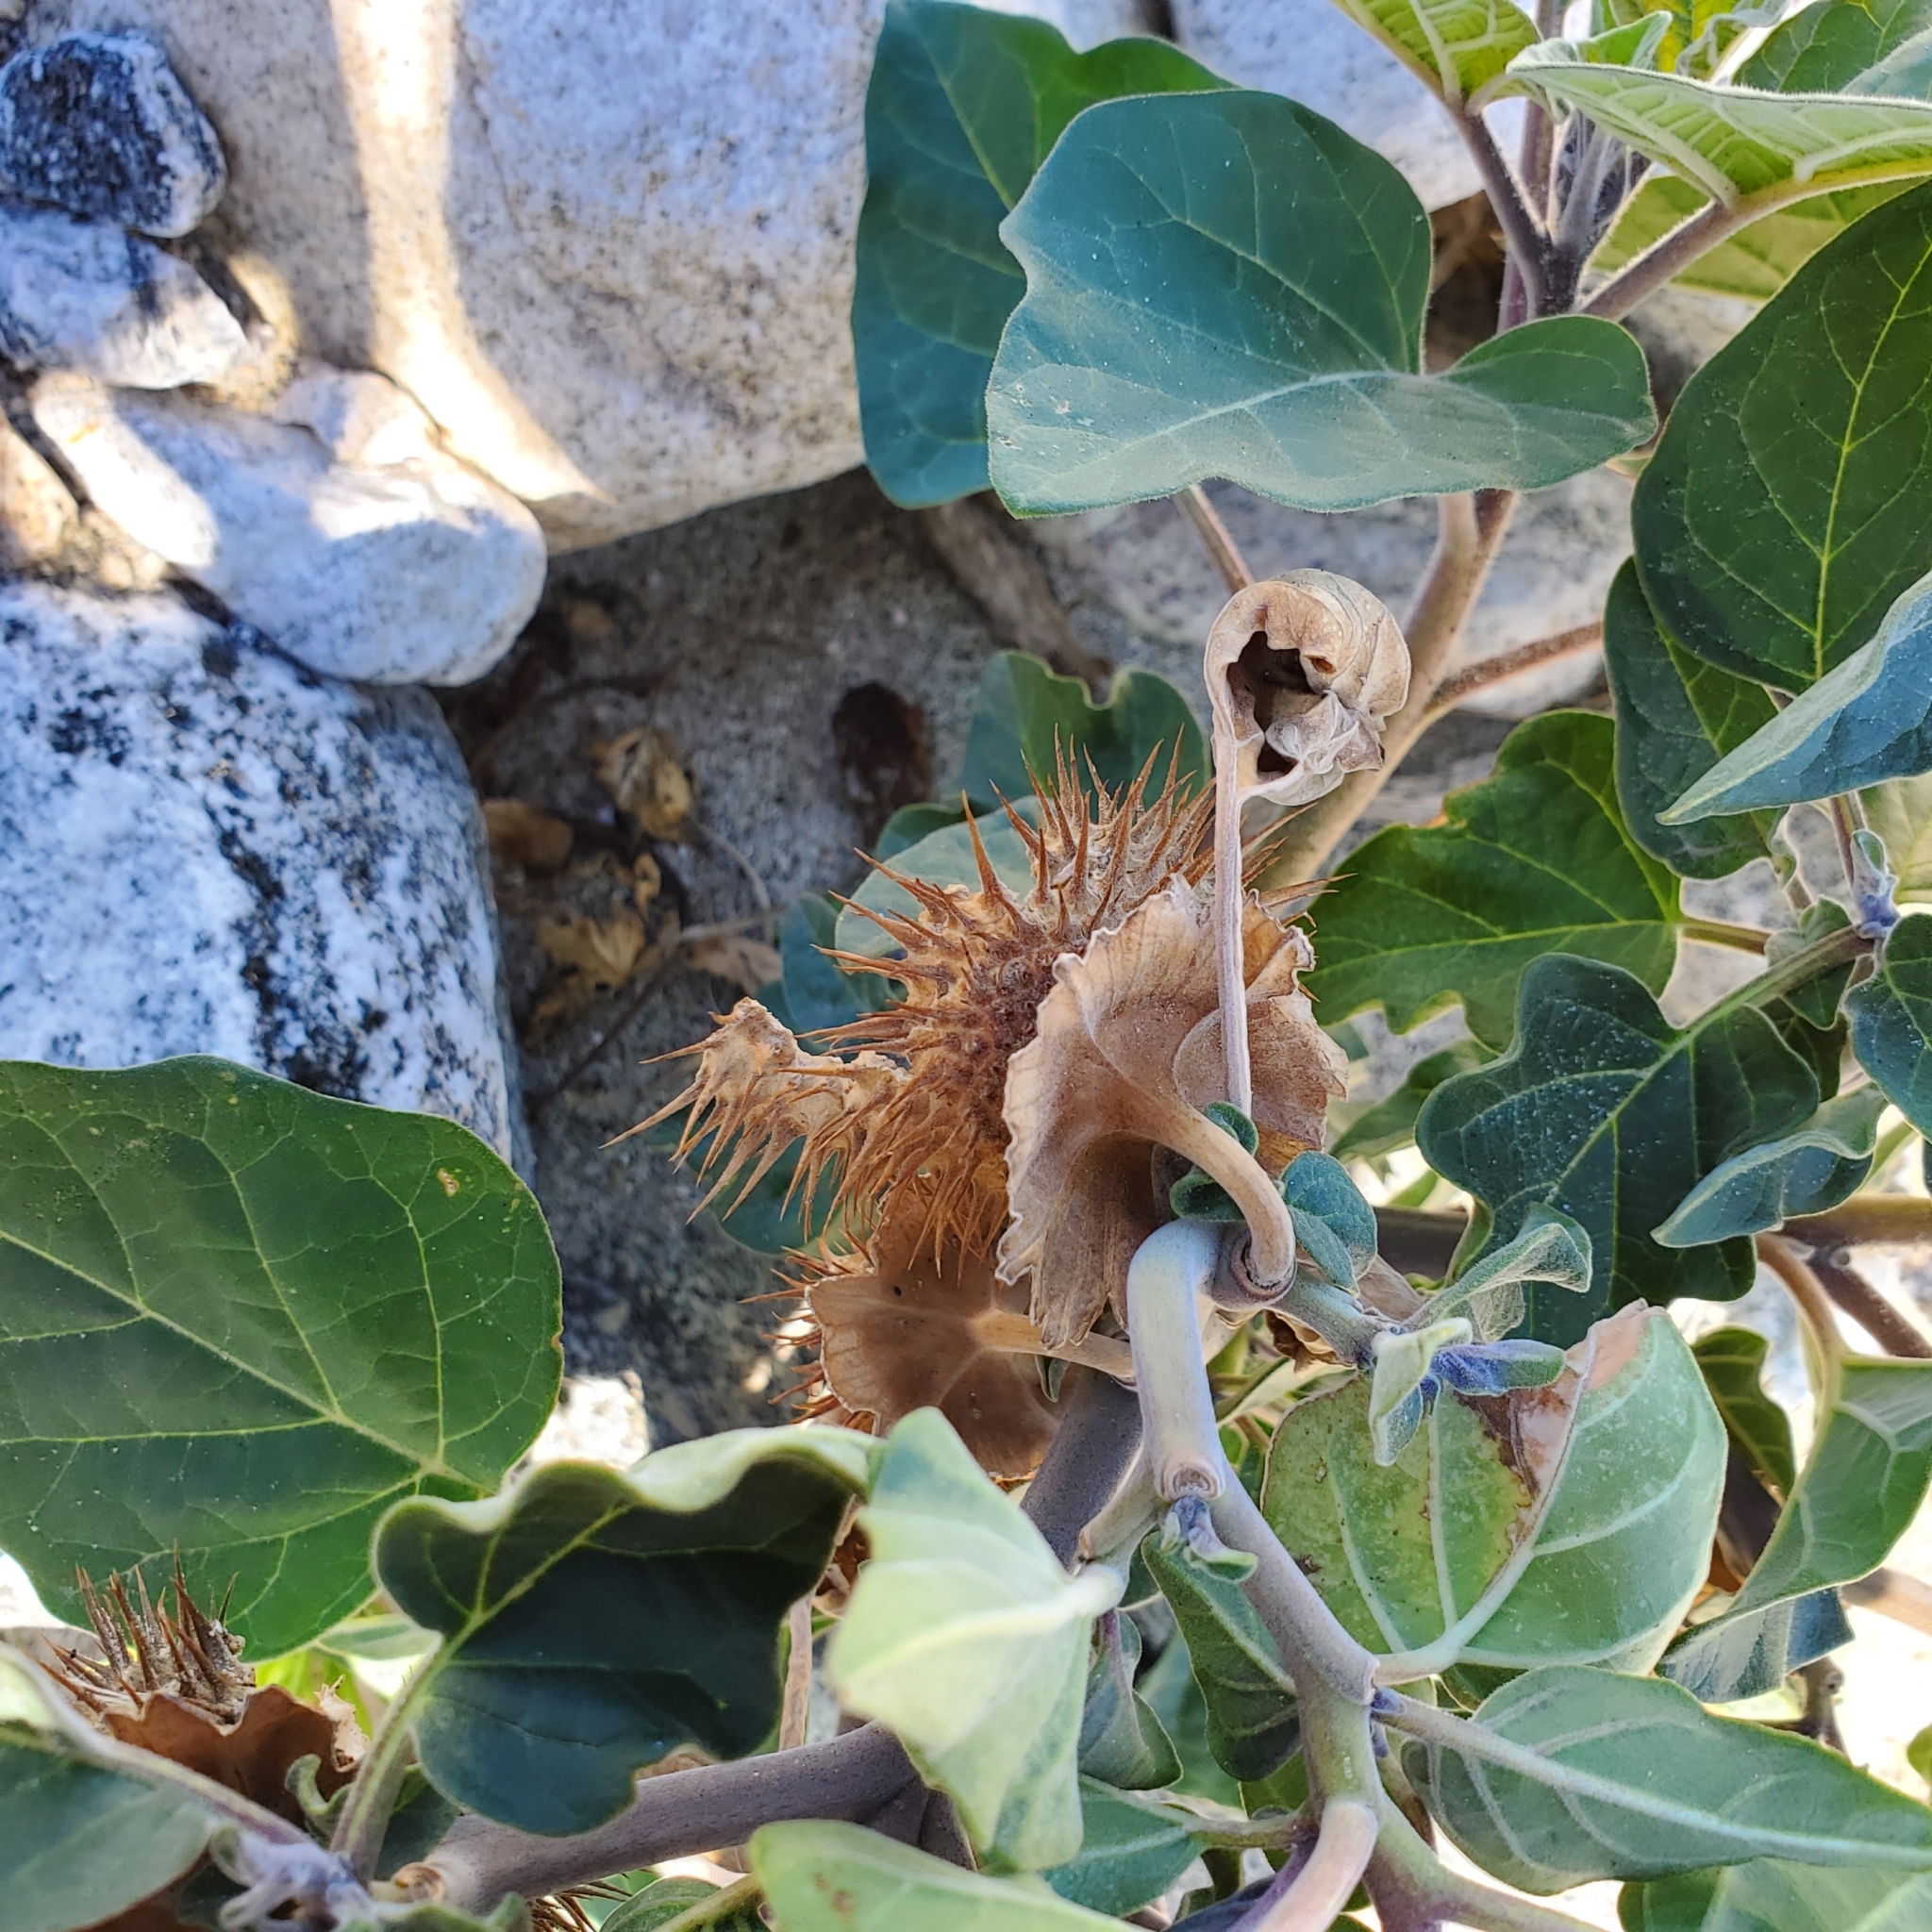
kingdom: Plantae
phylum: Tracheophyta
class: Magnoliopsida
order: Solanales
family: Solanaceae
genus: Datura
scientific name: Datura wrightii
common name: Sacred thorn-apple
